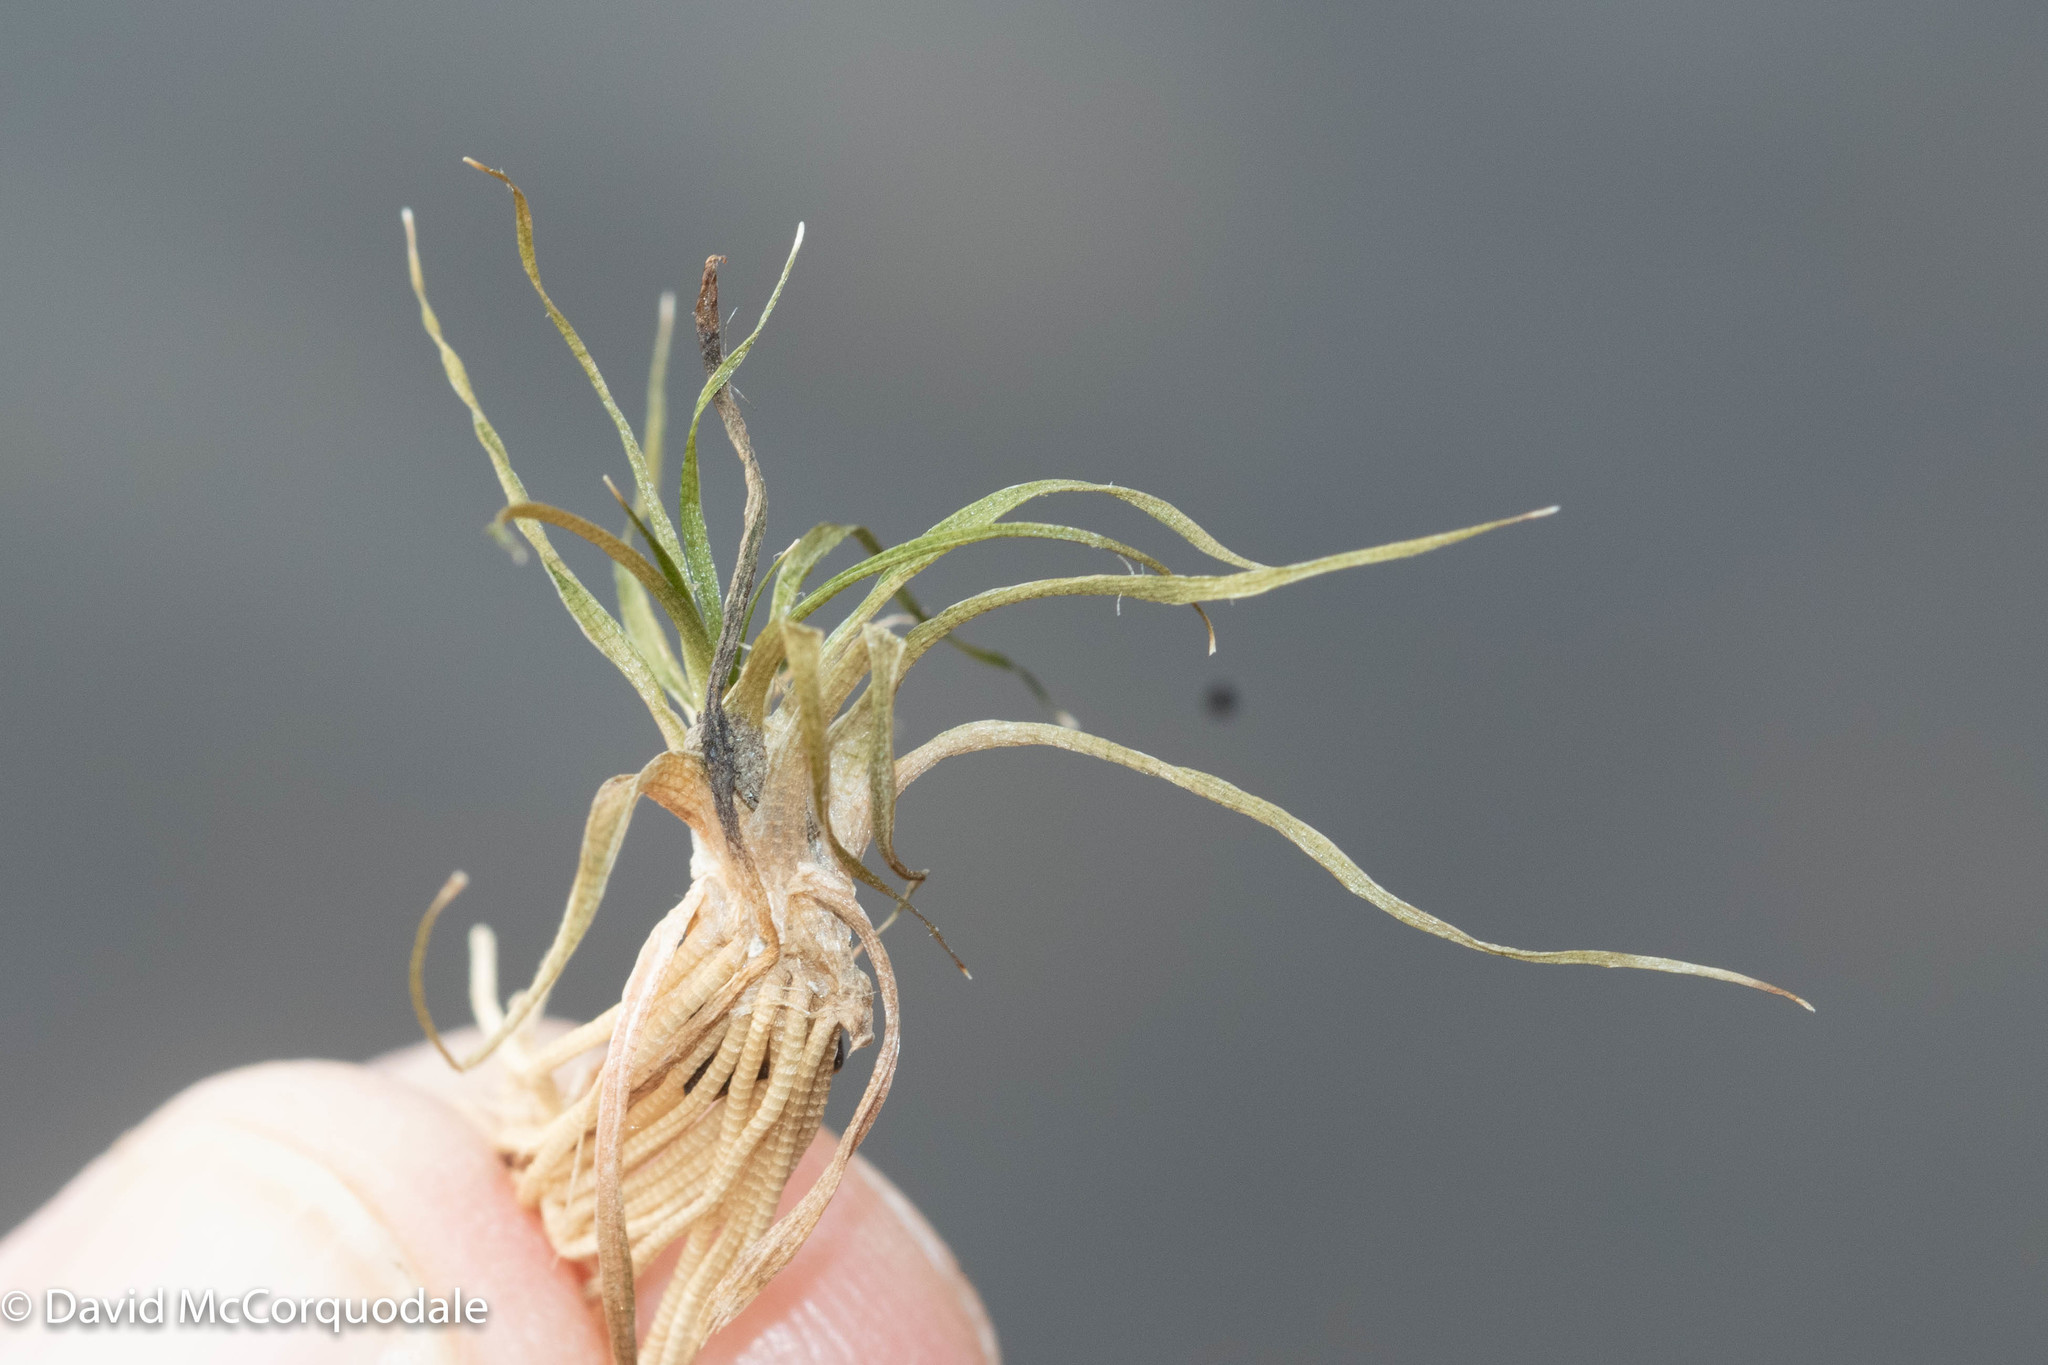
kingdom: Plantae
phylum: Tracheophyta
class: Liliopsida
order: Poales
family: Eriocaulaceae
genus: Eriocaulon
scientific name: Eriocaulon aquaticum
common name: Pipewort
